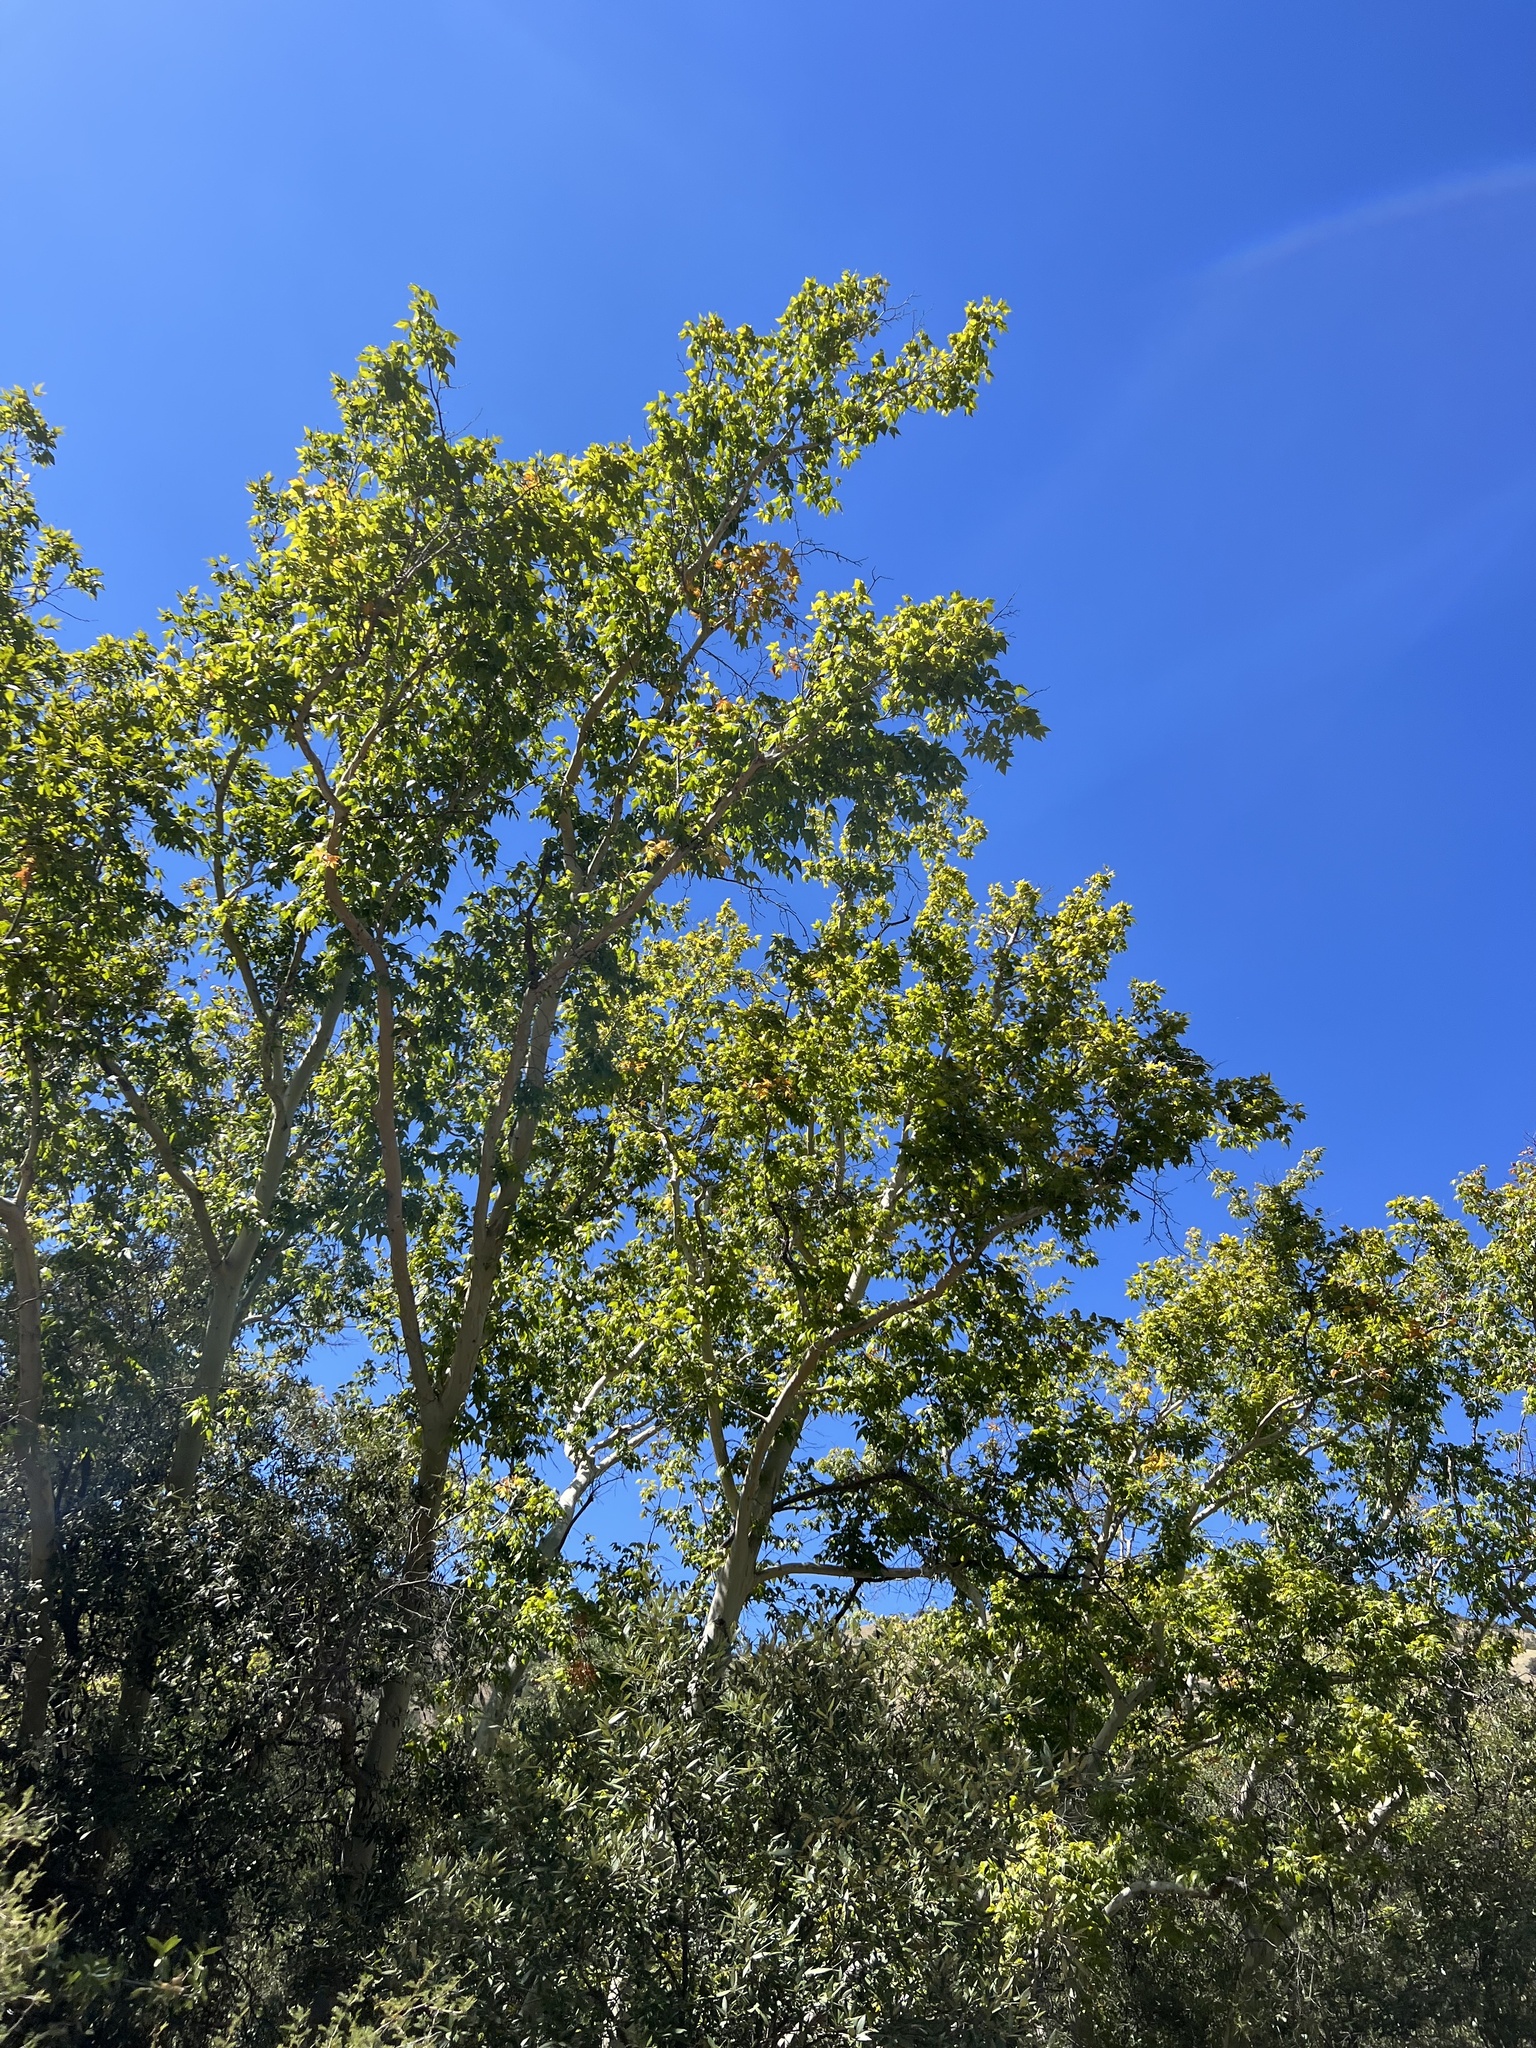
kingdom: Plantae
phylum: Tracheophyta
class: Magnoliopsida
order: Proteales
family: Platanaceae
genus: Platanus
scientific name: Platanus wrightii
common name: Arizona sycamore
